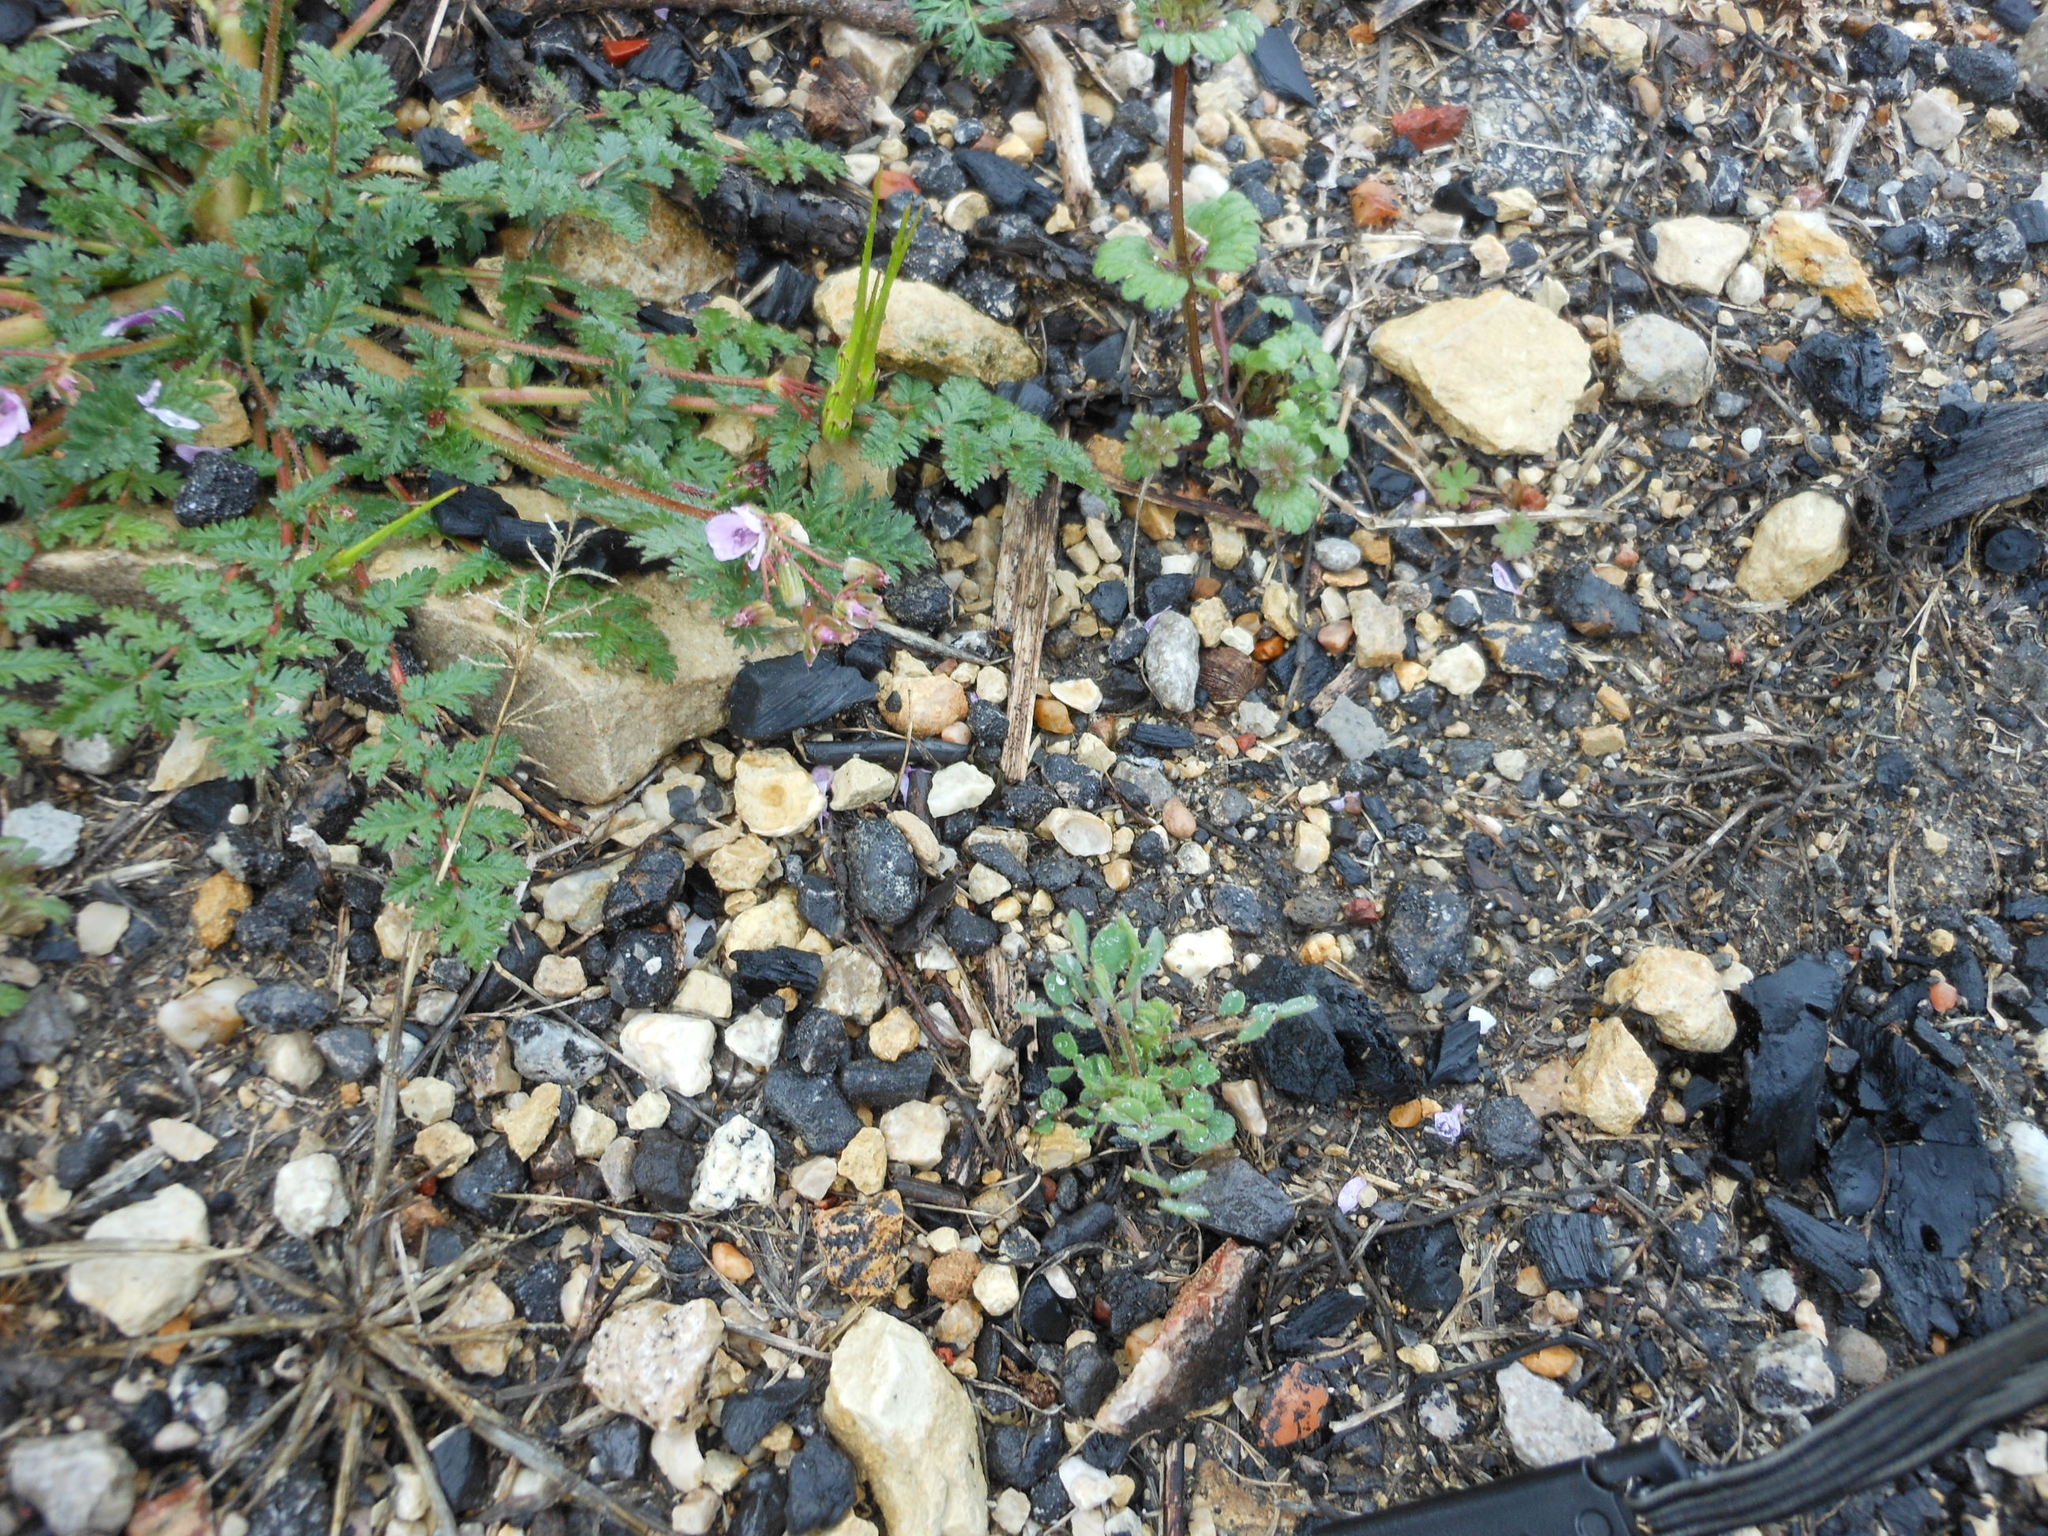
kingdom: Plantae
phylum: Tracheophyta
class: Magnoliopsida
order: Geraniales
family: Geraniaceae
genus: Erodium
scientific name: Erodium cicutarium
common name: Common stork's-bill
